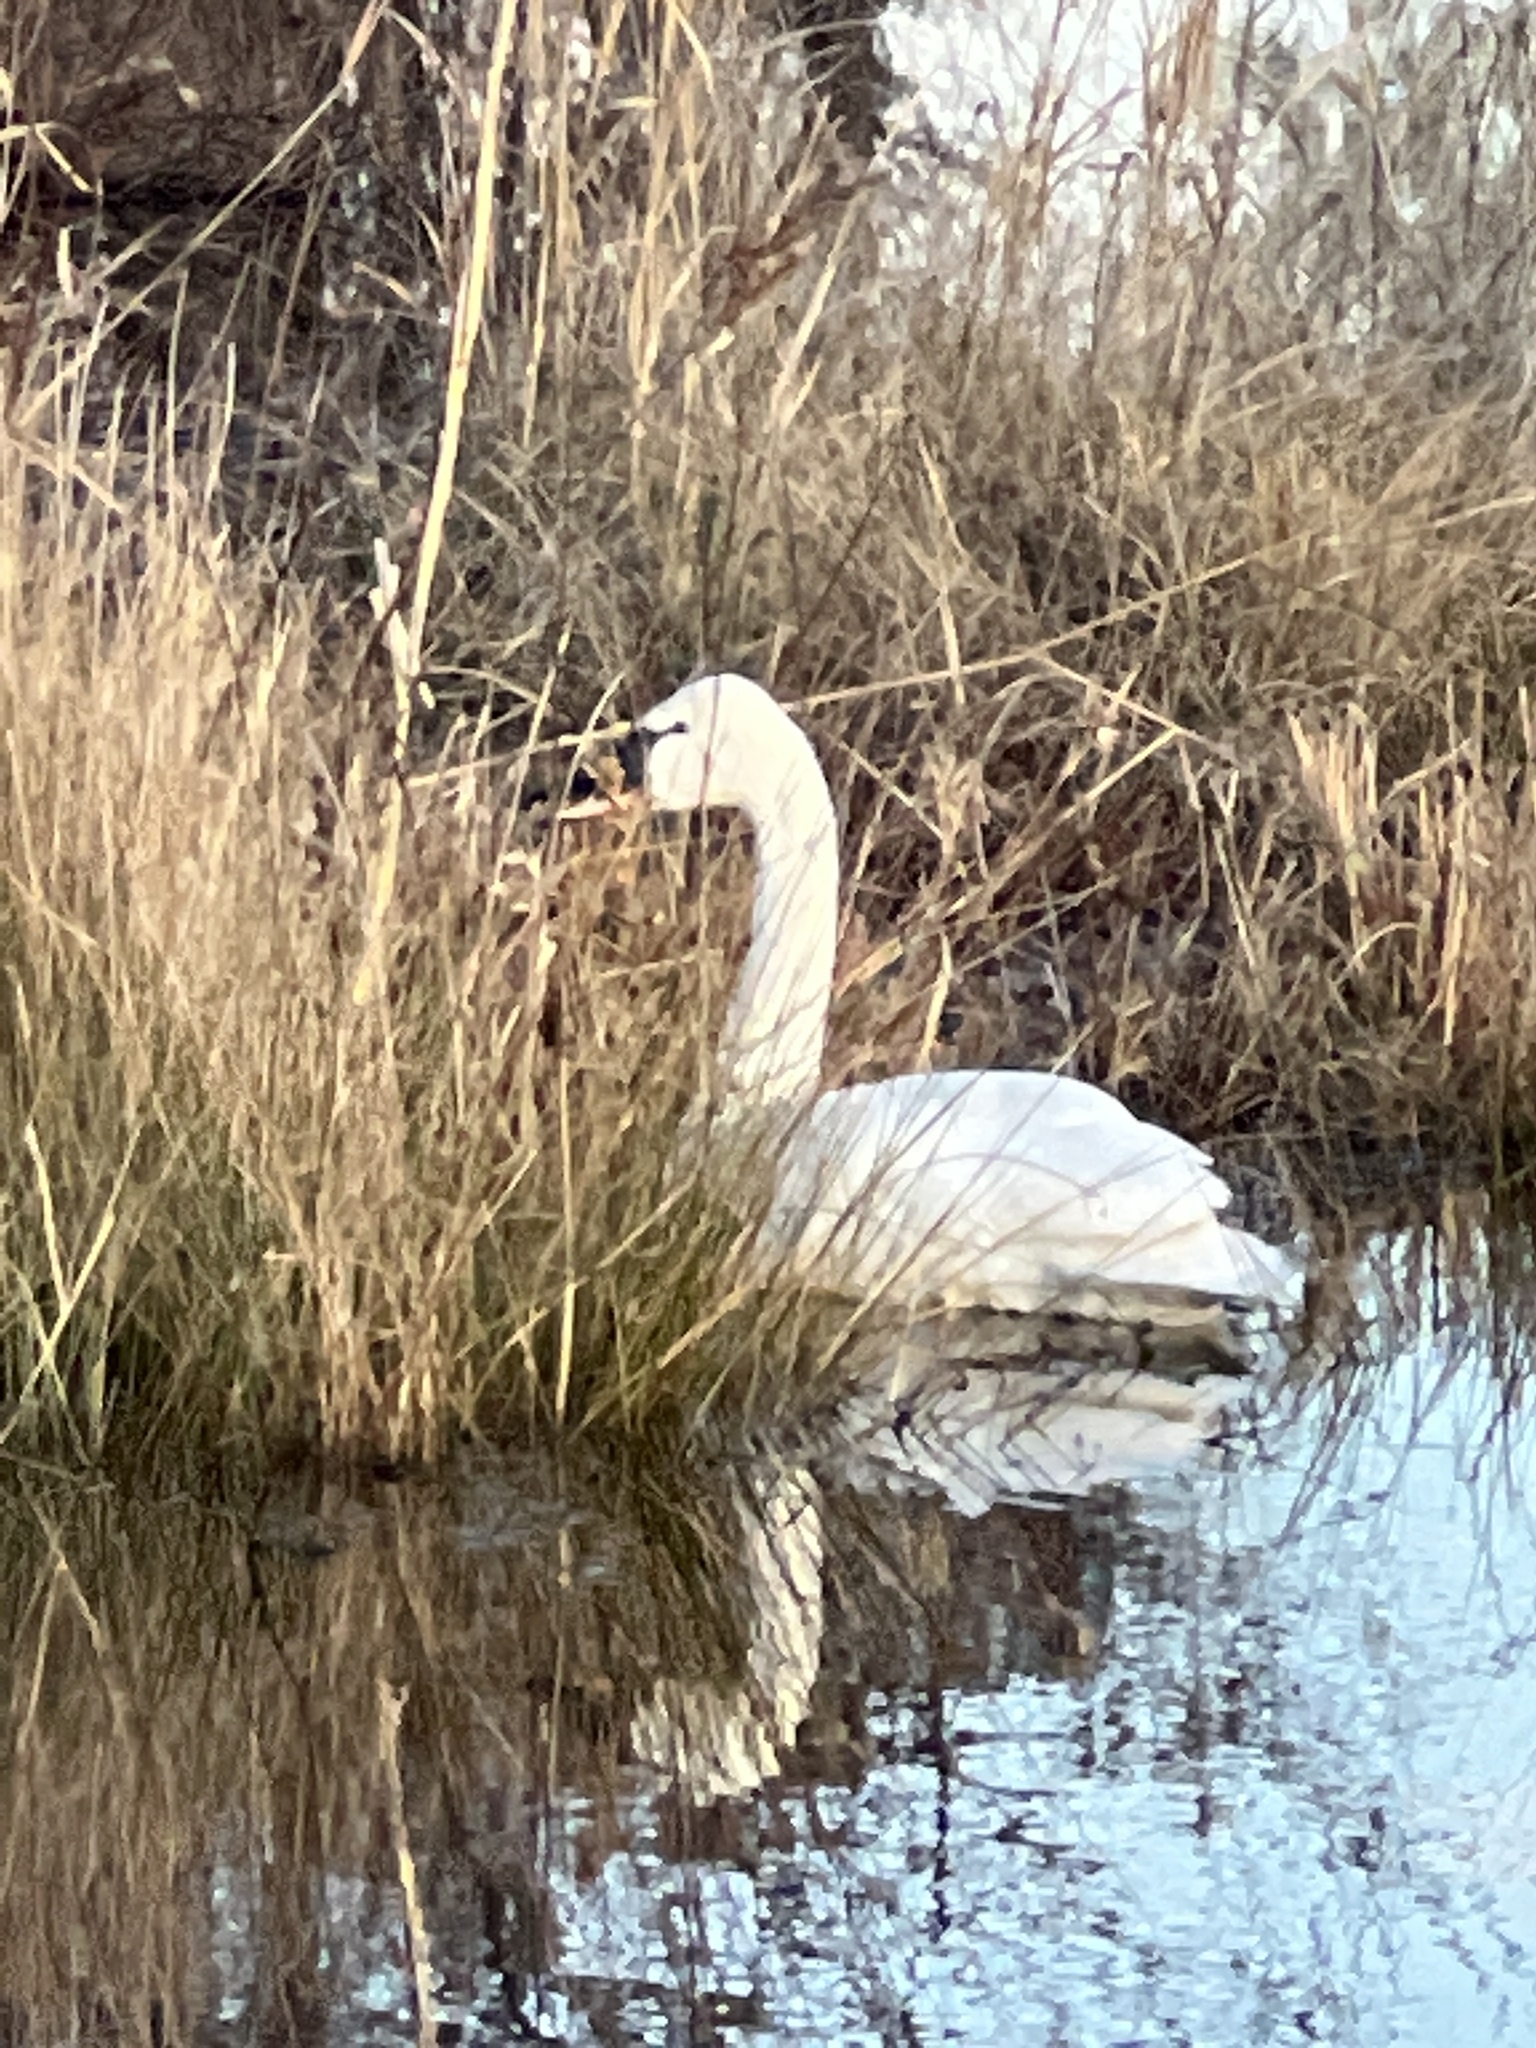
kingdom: Animalia
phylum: Chordata
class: Aves
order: Anseriformes
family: Anatidae
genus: Cygnus
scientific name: Cygnus columbianus
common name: Tundra swan
